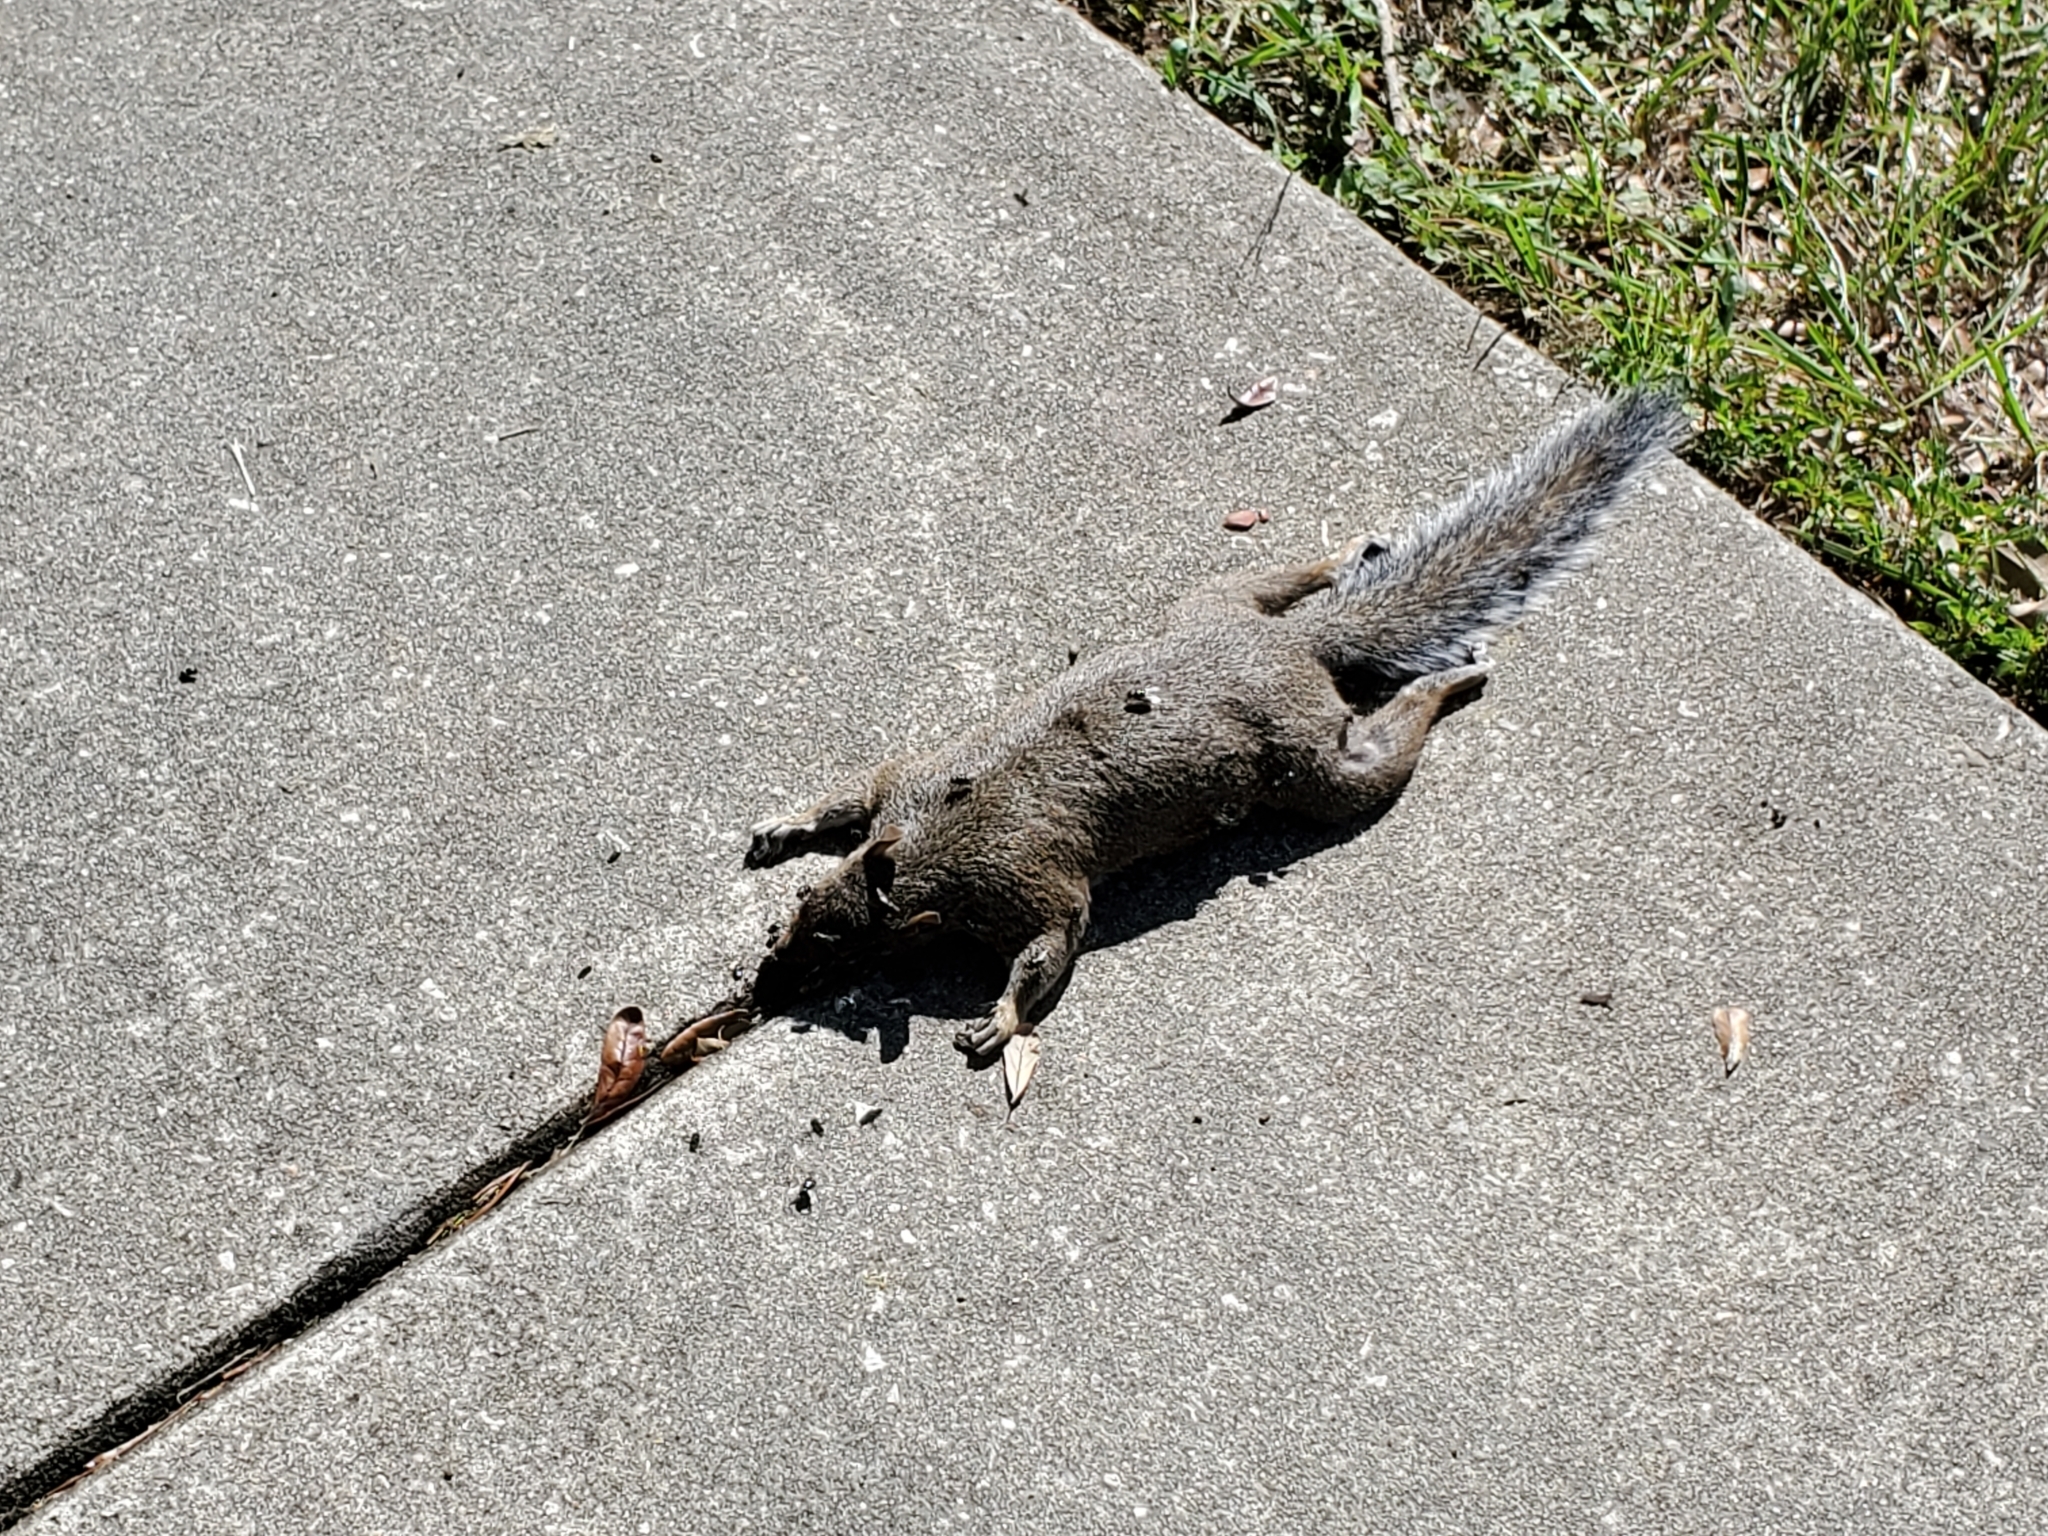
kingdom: Animalia
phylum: Chordata
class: Mammalia
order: Rodentia
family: Sciuridae
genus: Sciurus
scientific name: Sciurus carolinensis
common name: Eastern gray squirrel
